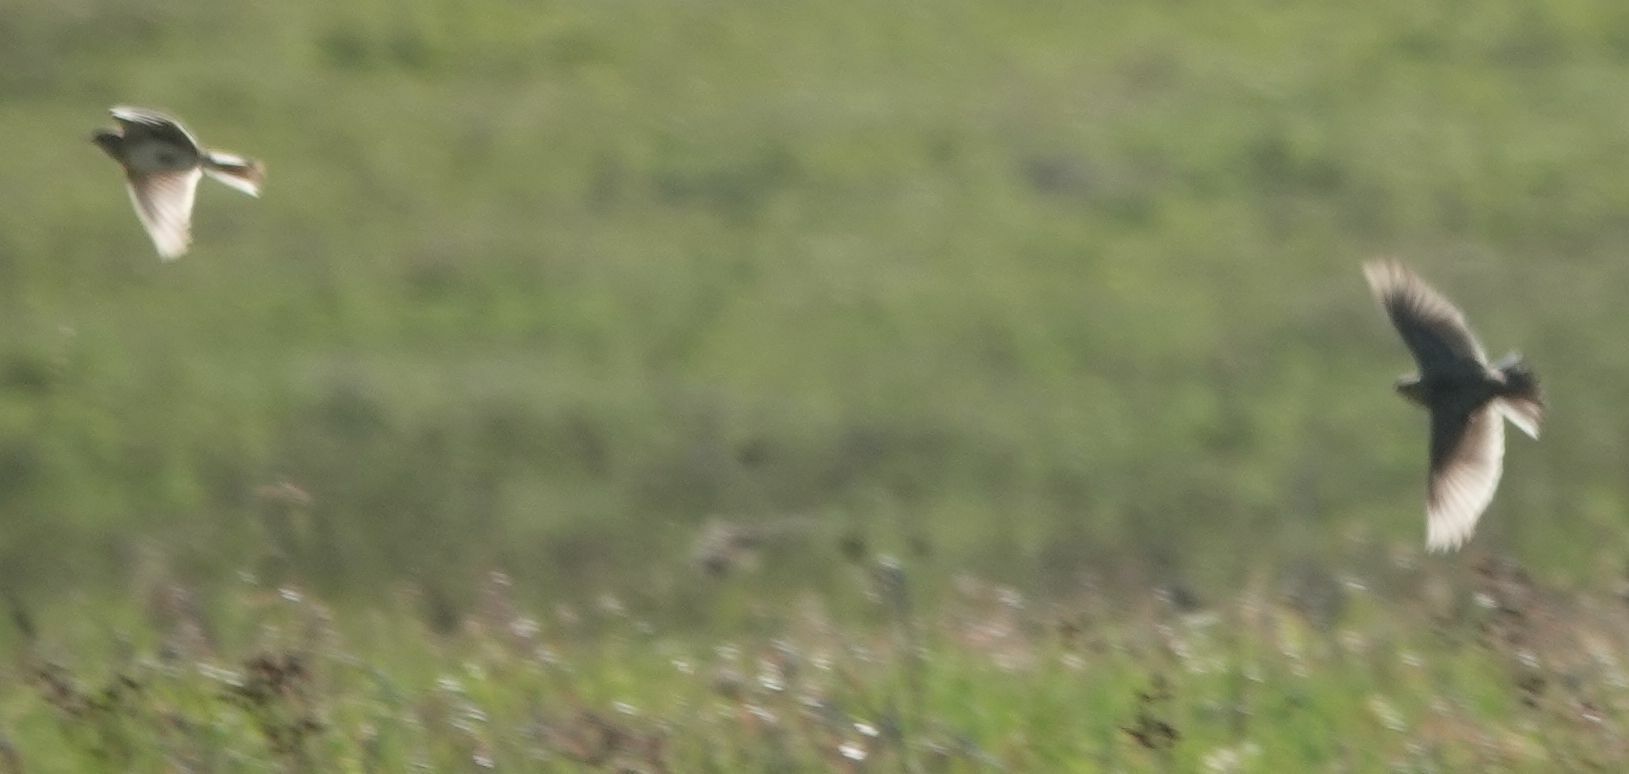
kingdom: Animalia
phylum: Chordata
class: Aves
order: Passeriformes
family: Alaudidae
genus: Alauda
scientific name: Alauda arvensis
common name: Eurasian skylark
